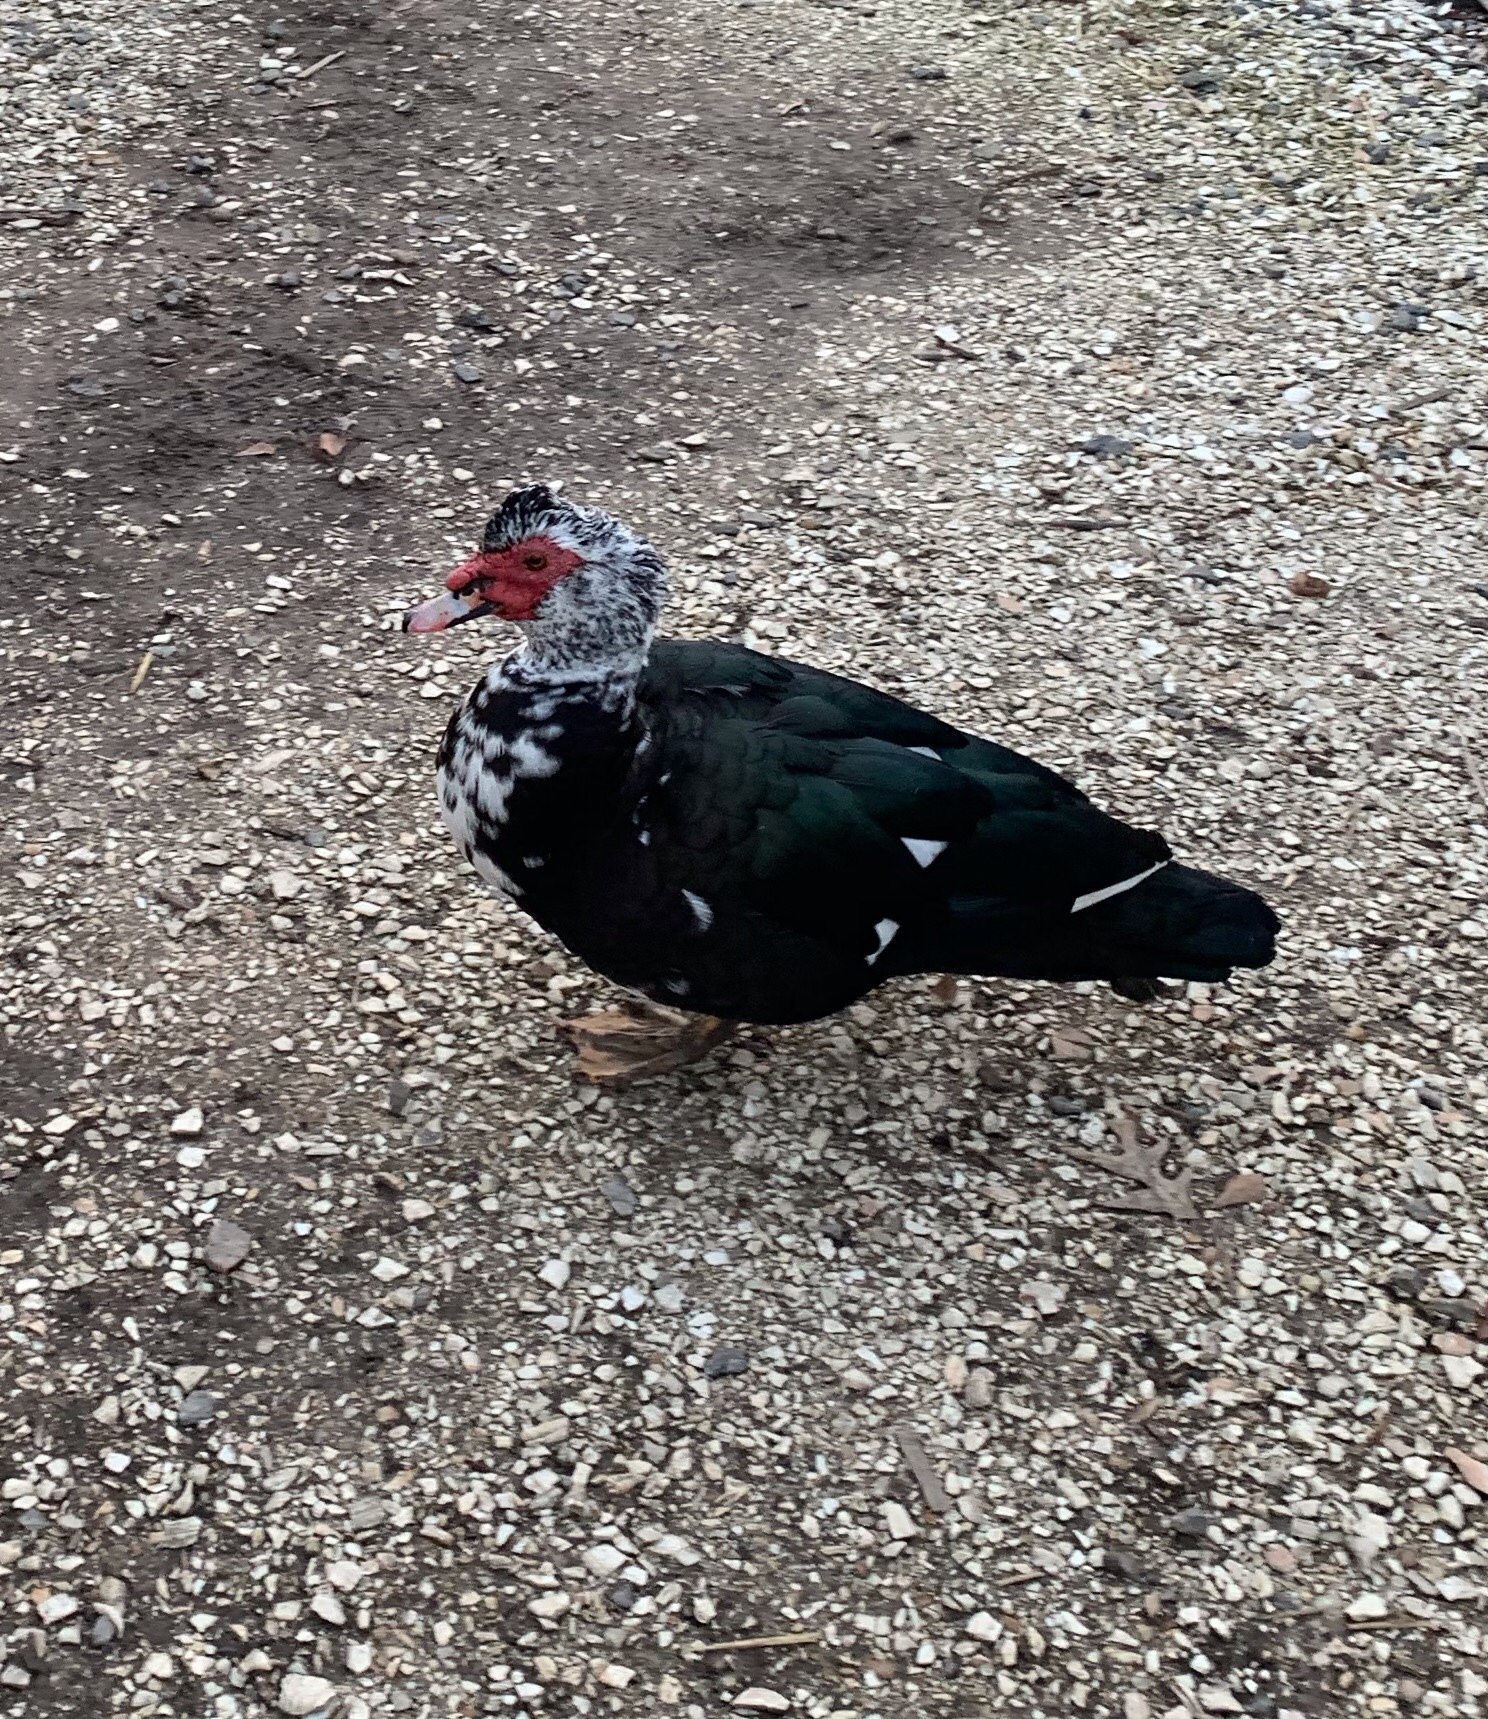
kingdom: Animalia
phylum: Chordata
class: Aves
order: Anseriformes
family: Anatidae
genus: Cairina
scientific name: Cairina moschata
